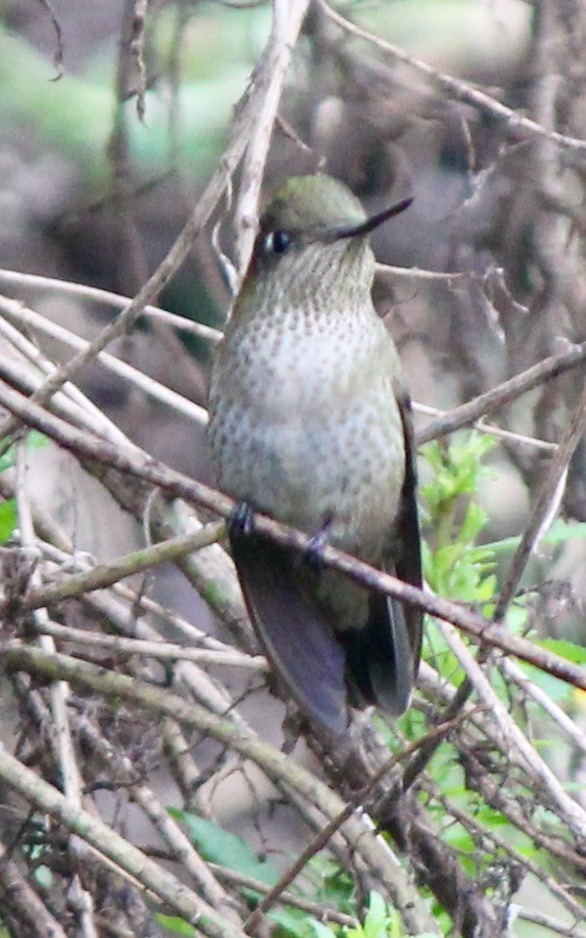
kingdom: Animalia
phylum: Chordata
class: Aves
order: Apodiformes
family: Trochilidae
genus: Sephanoides
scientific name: Sephanoides sephaniodes
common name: Green-backed firecrown
